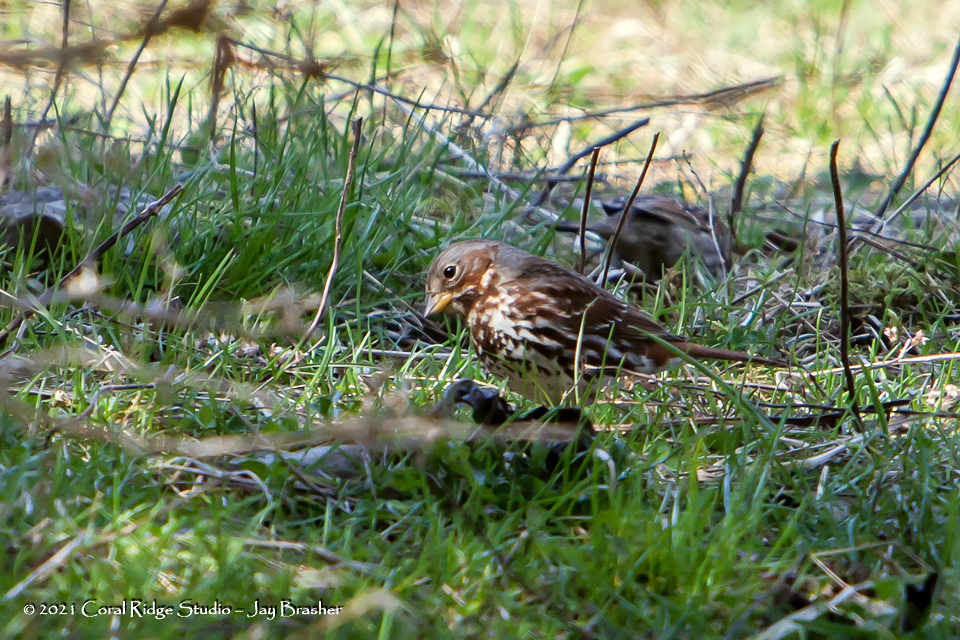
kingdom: Animalia
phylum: Chordata
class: Aves
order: Passeriformes
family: Passerellidae
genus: Passerella
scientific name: Passerella iliaca
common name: Fox sparrow
